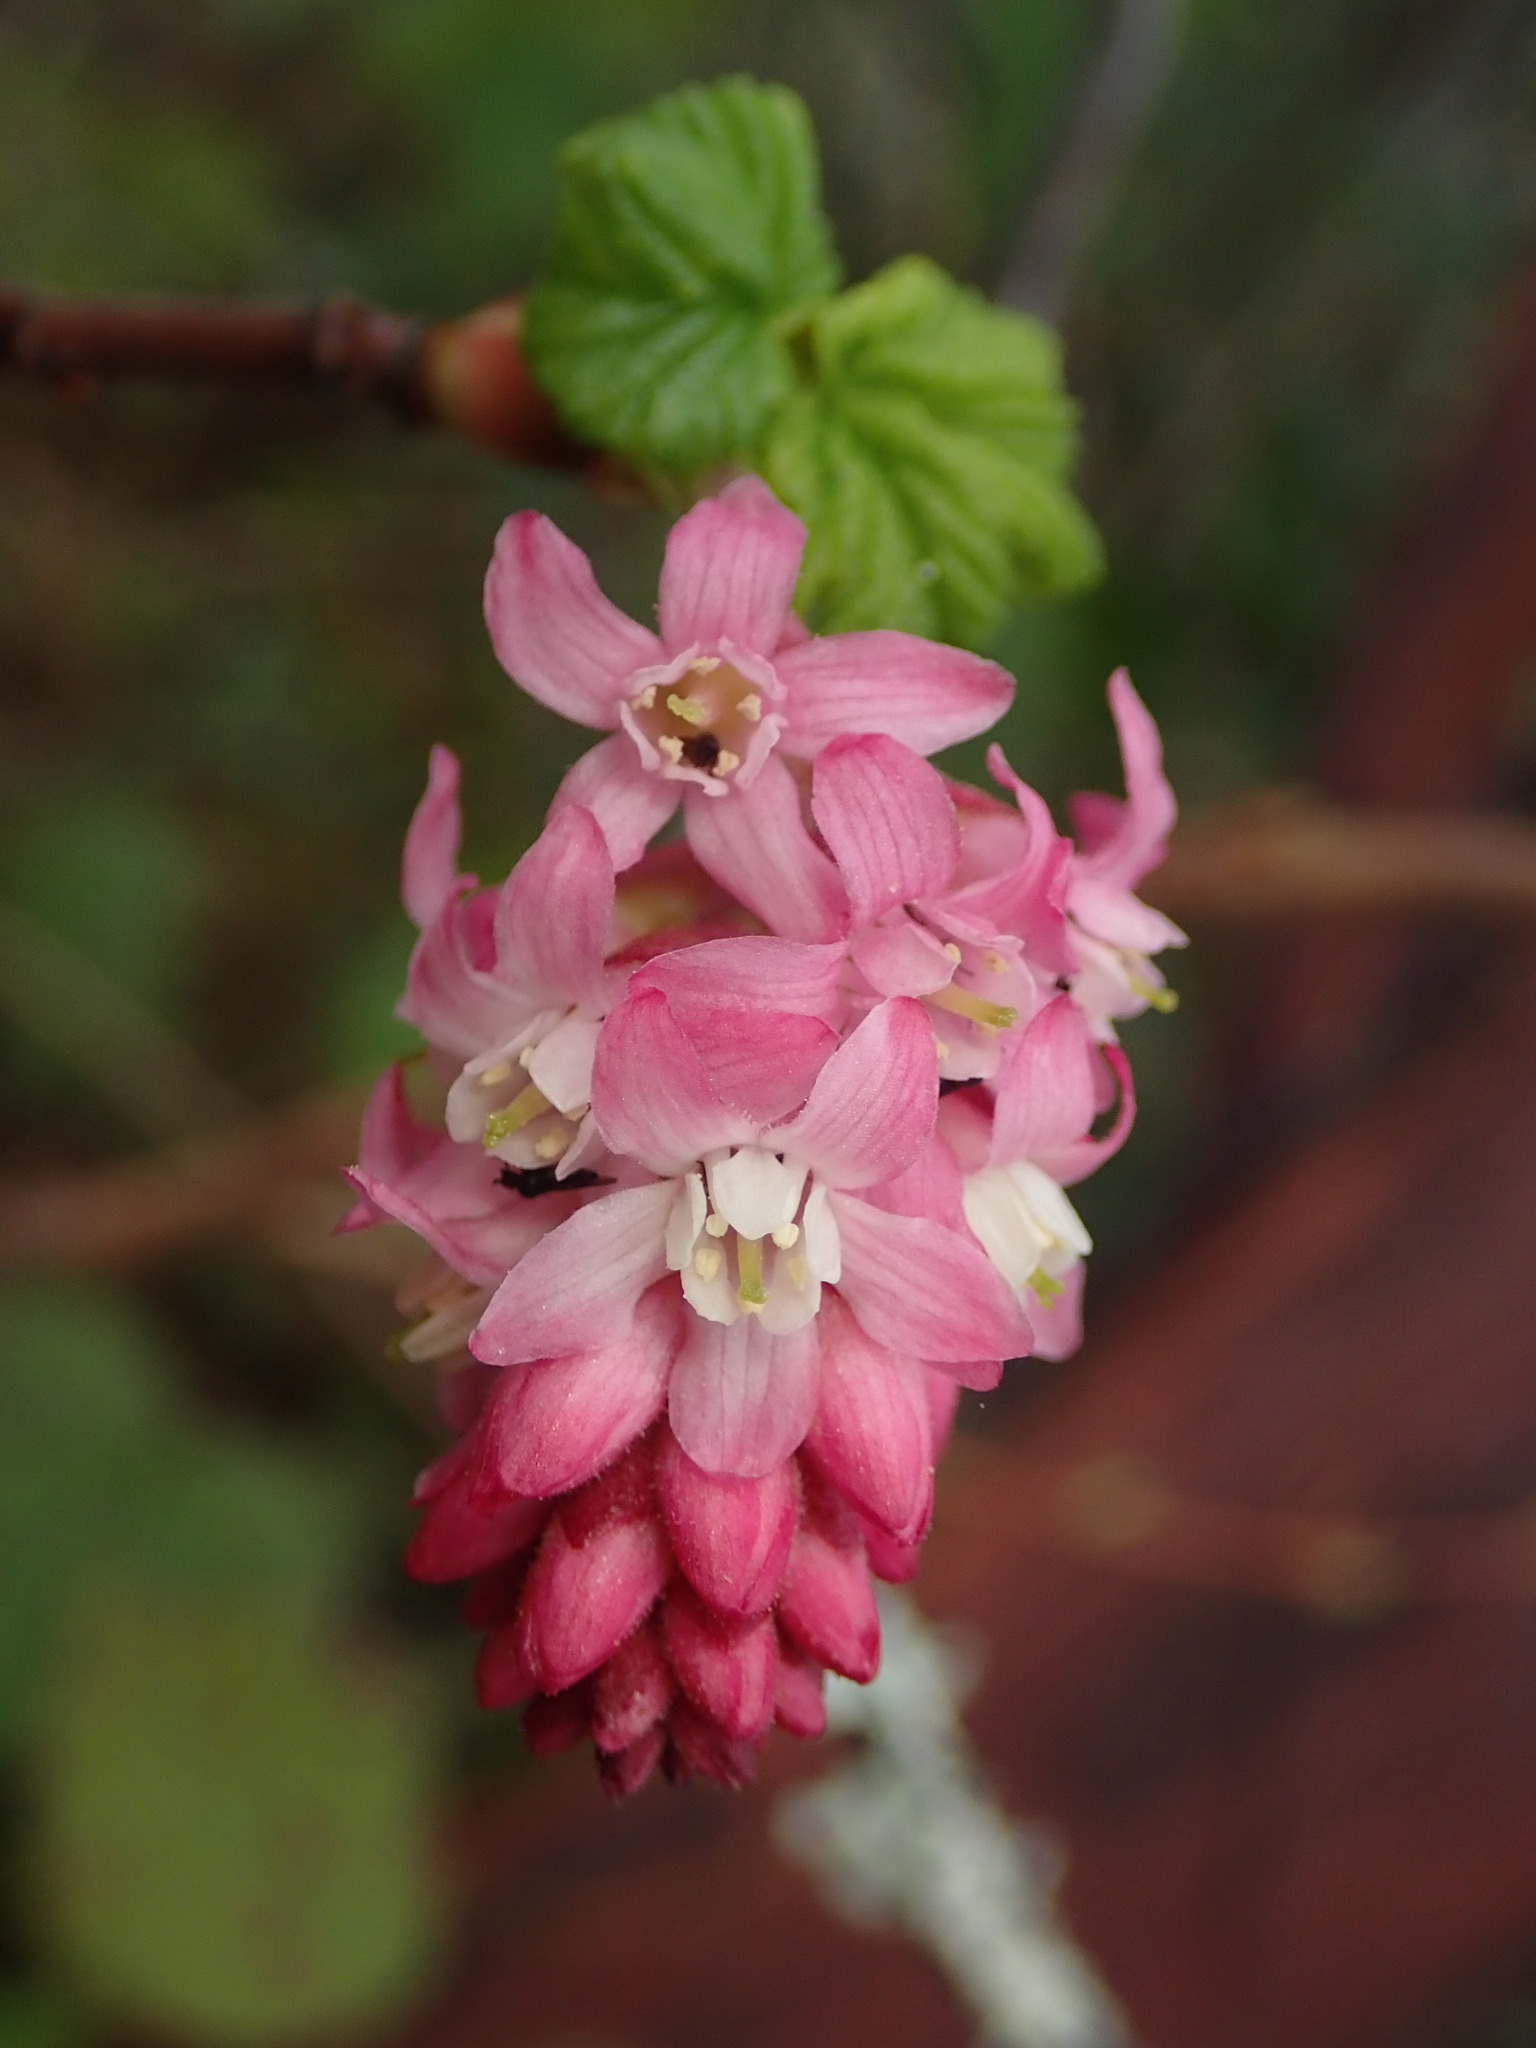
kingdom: Plantae
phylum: Tracheophyta
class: Magnoliopsida
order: Saxifragales
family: Grossulariaceae
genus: Ribes
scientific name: Ribes sanguineum
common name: Flowering currant
